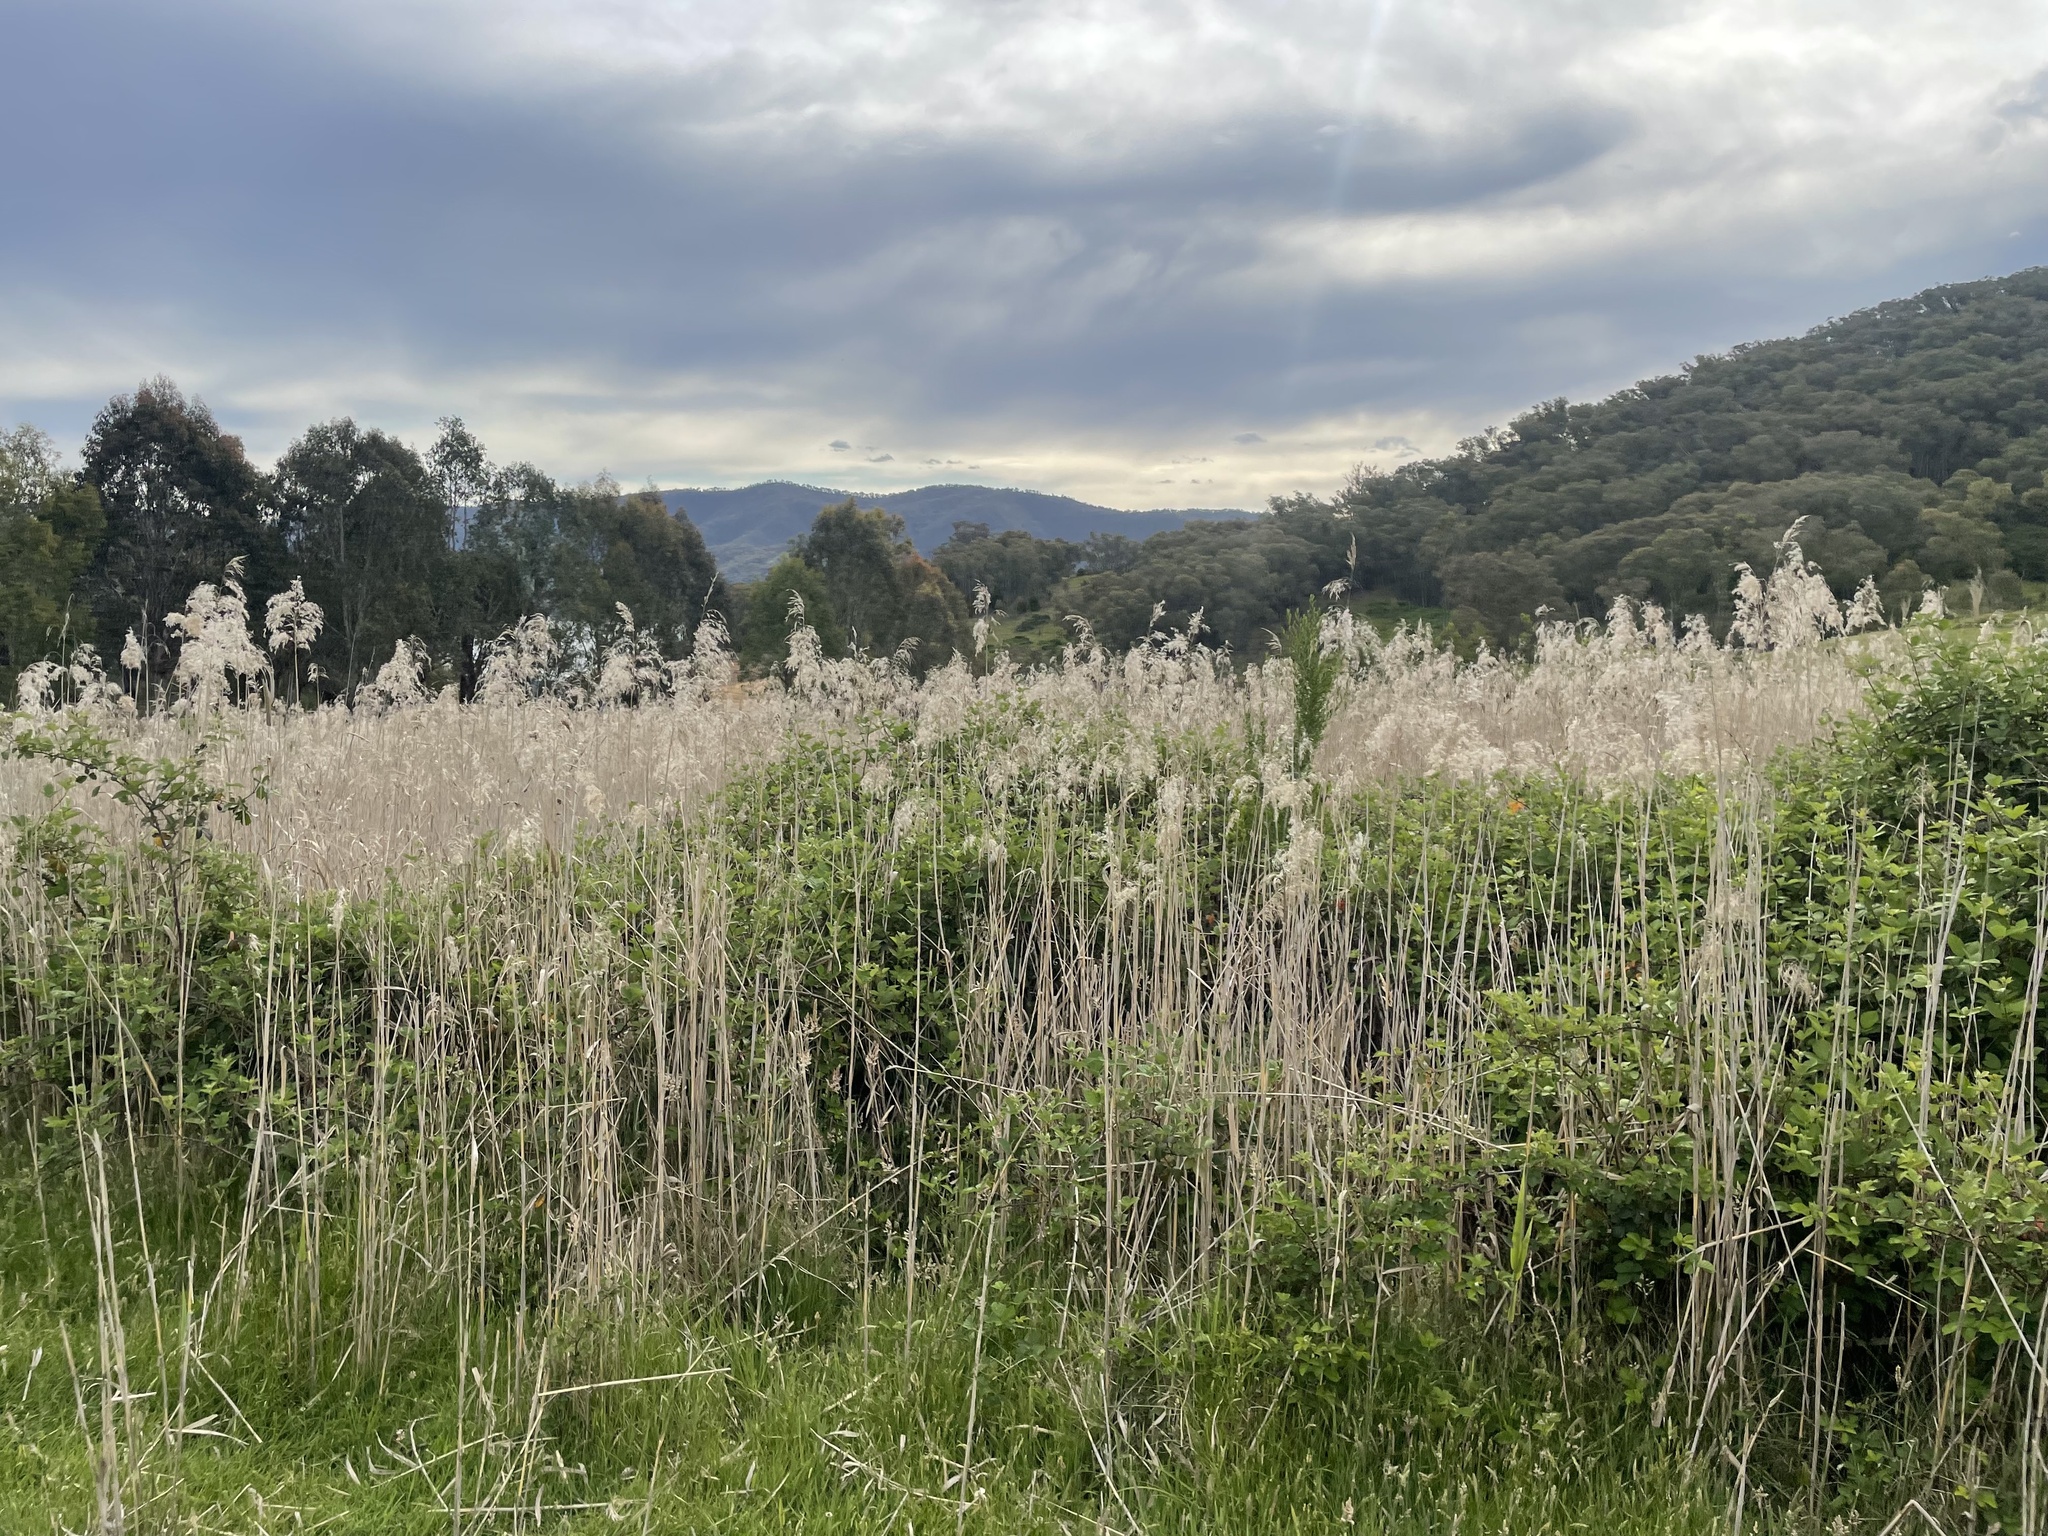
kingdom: Plantae
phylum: Tracheophyta
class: Liliopsida
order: Poales
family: Poaceae
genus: Phragmites
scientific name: Phragmites australis
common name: Common reed
